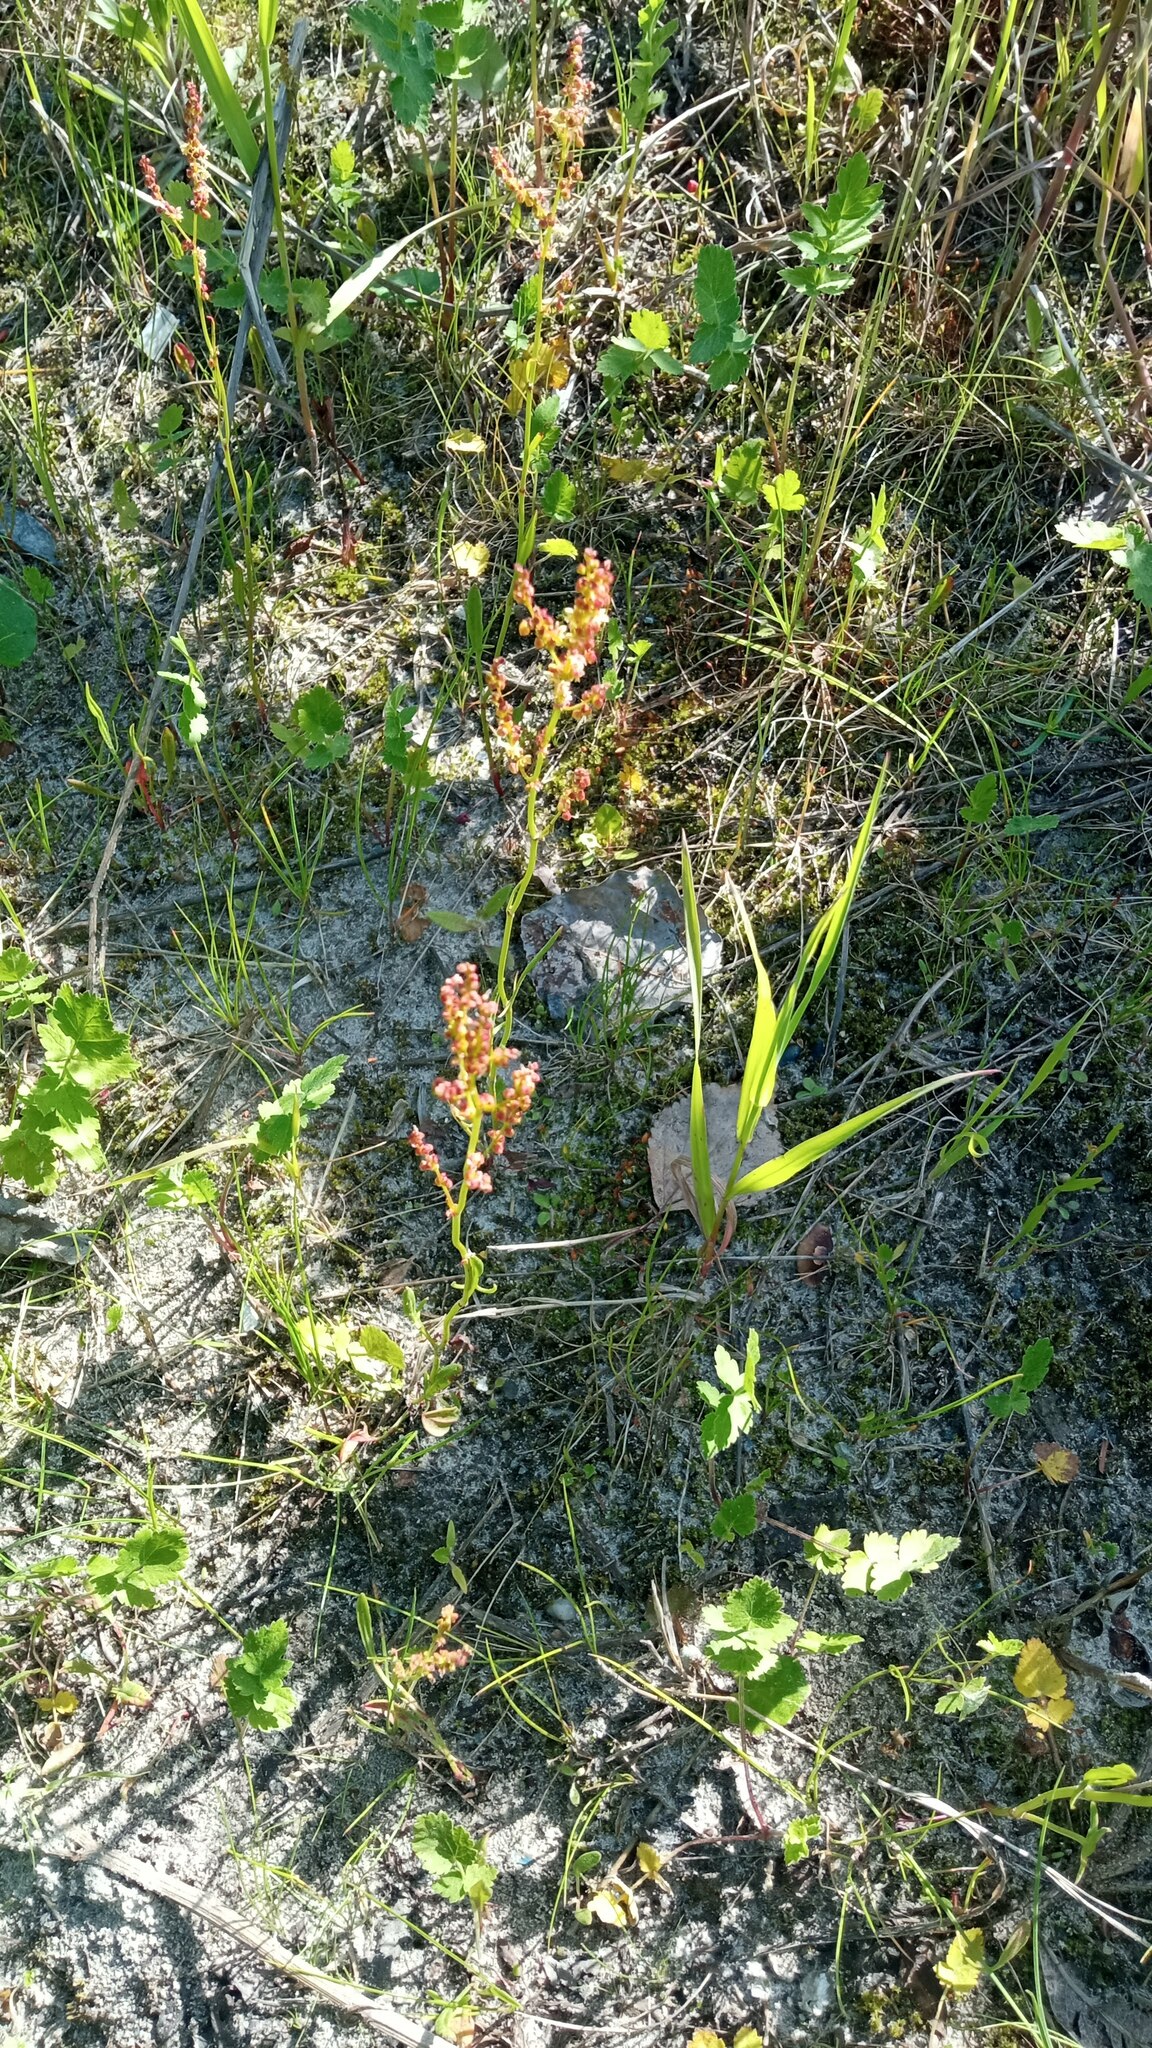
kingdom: Plantae
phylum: Tracheophyta
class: Magnoliopsida
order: Caryophyllales
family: Polygonaceae
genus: Rumex
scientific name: Rumex acetosella
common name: Common sheep sorrel
